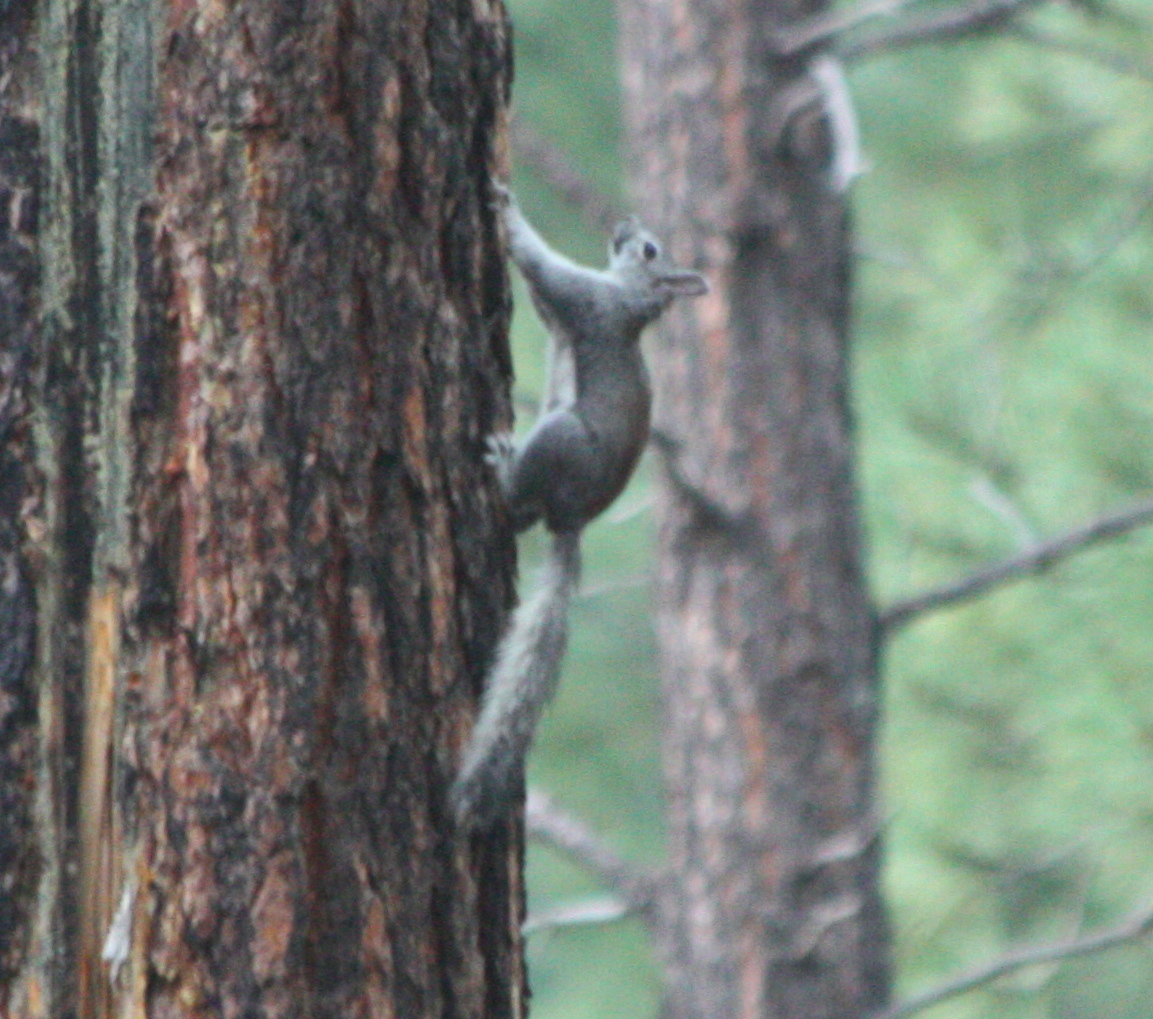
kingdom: Animalia
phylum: Chordata
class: Mammalia
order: Rodentia
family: Sciuridae
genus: Sciurus
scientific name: Sciurus aberti
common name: Abert's squirrel
